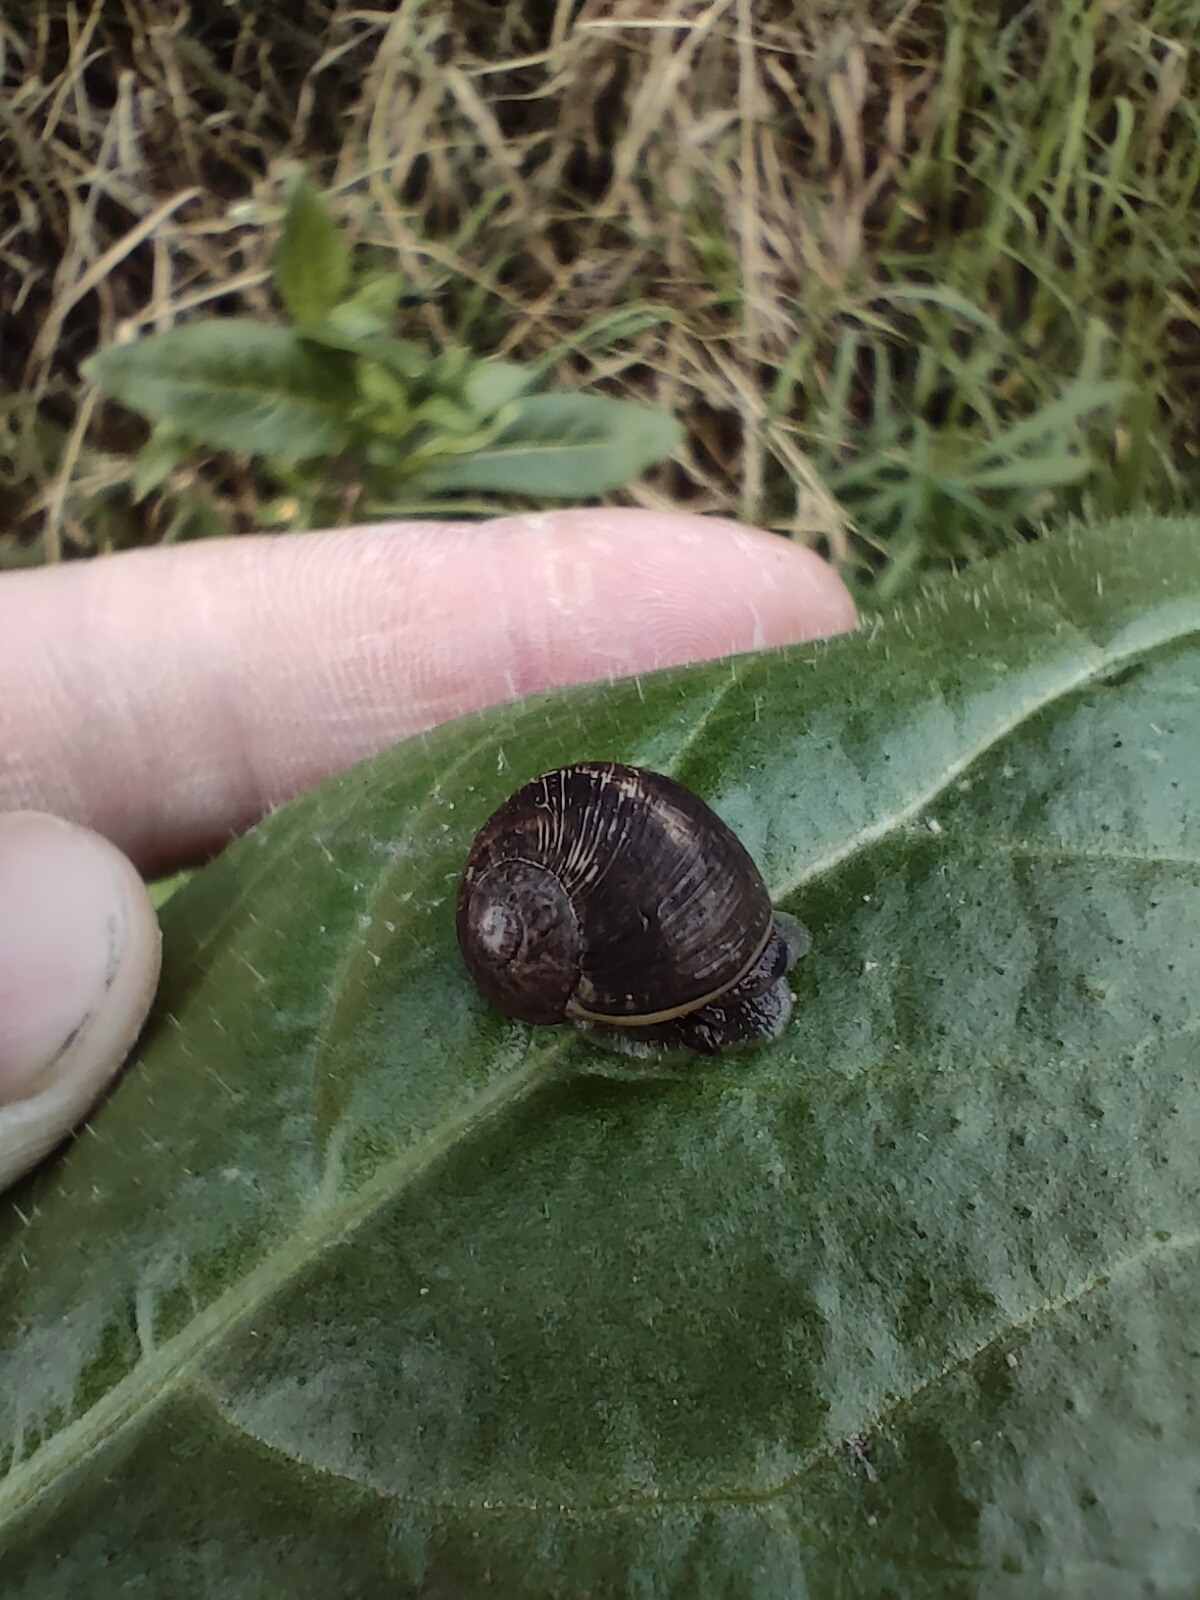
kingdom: Animalia
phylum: Mollusca
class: Gastropoda
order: Stylommatophora
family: Helicidae
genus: Cornu
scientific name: Cornu aspersum
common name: Brown garden snail
